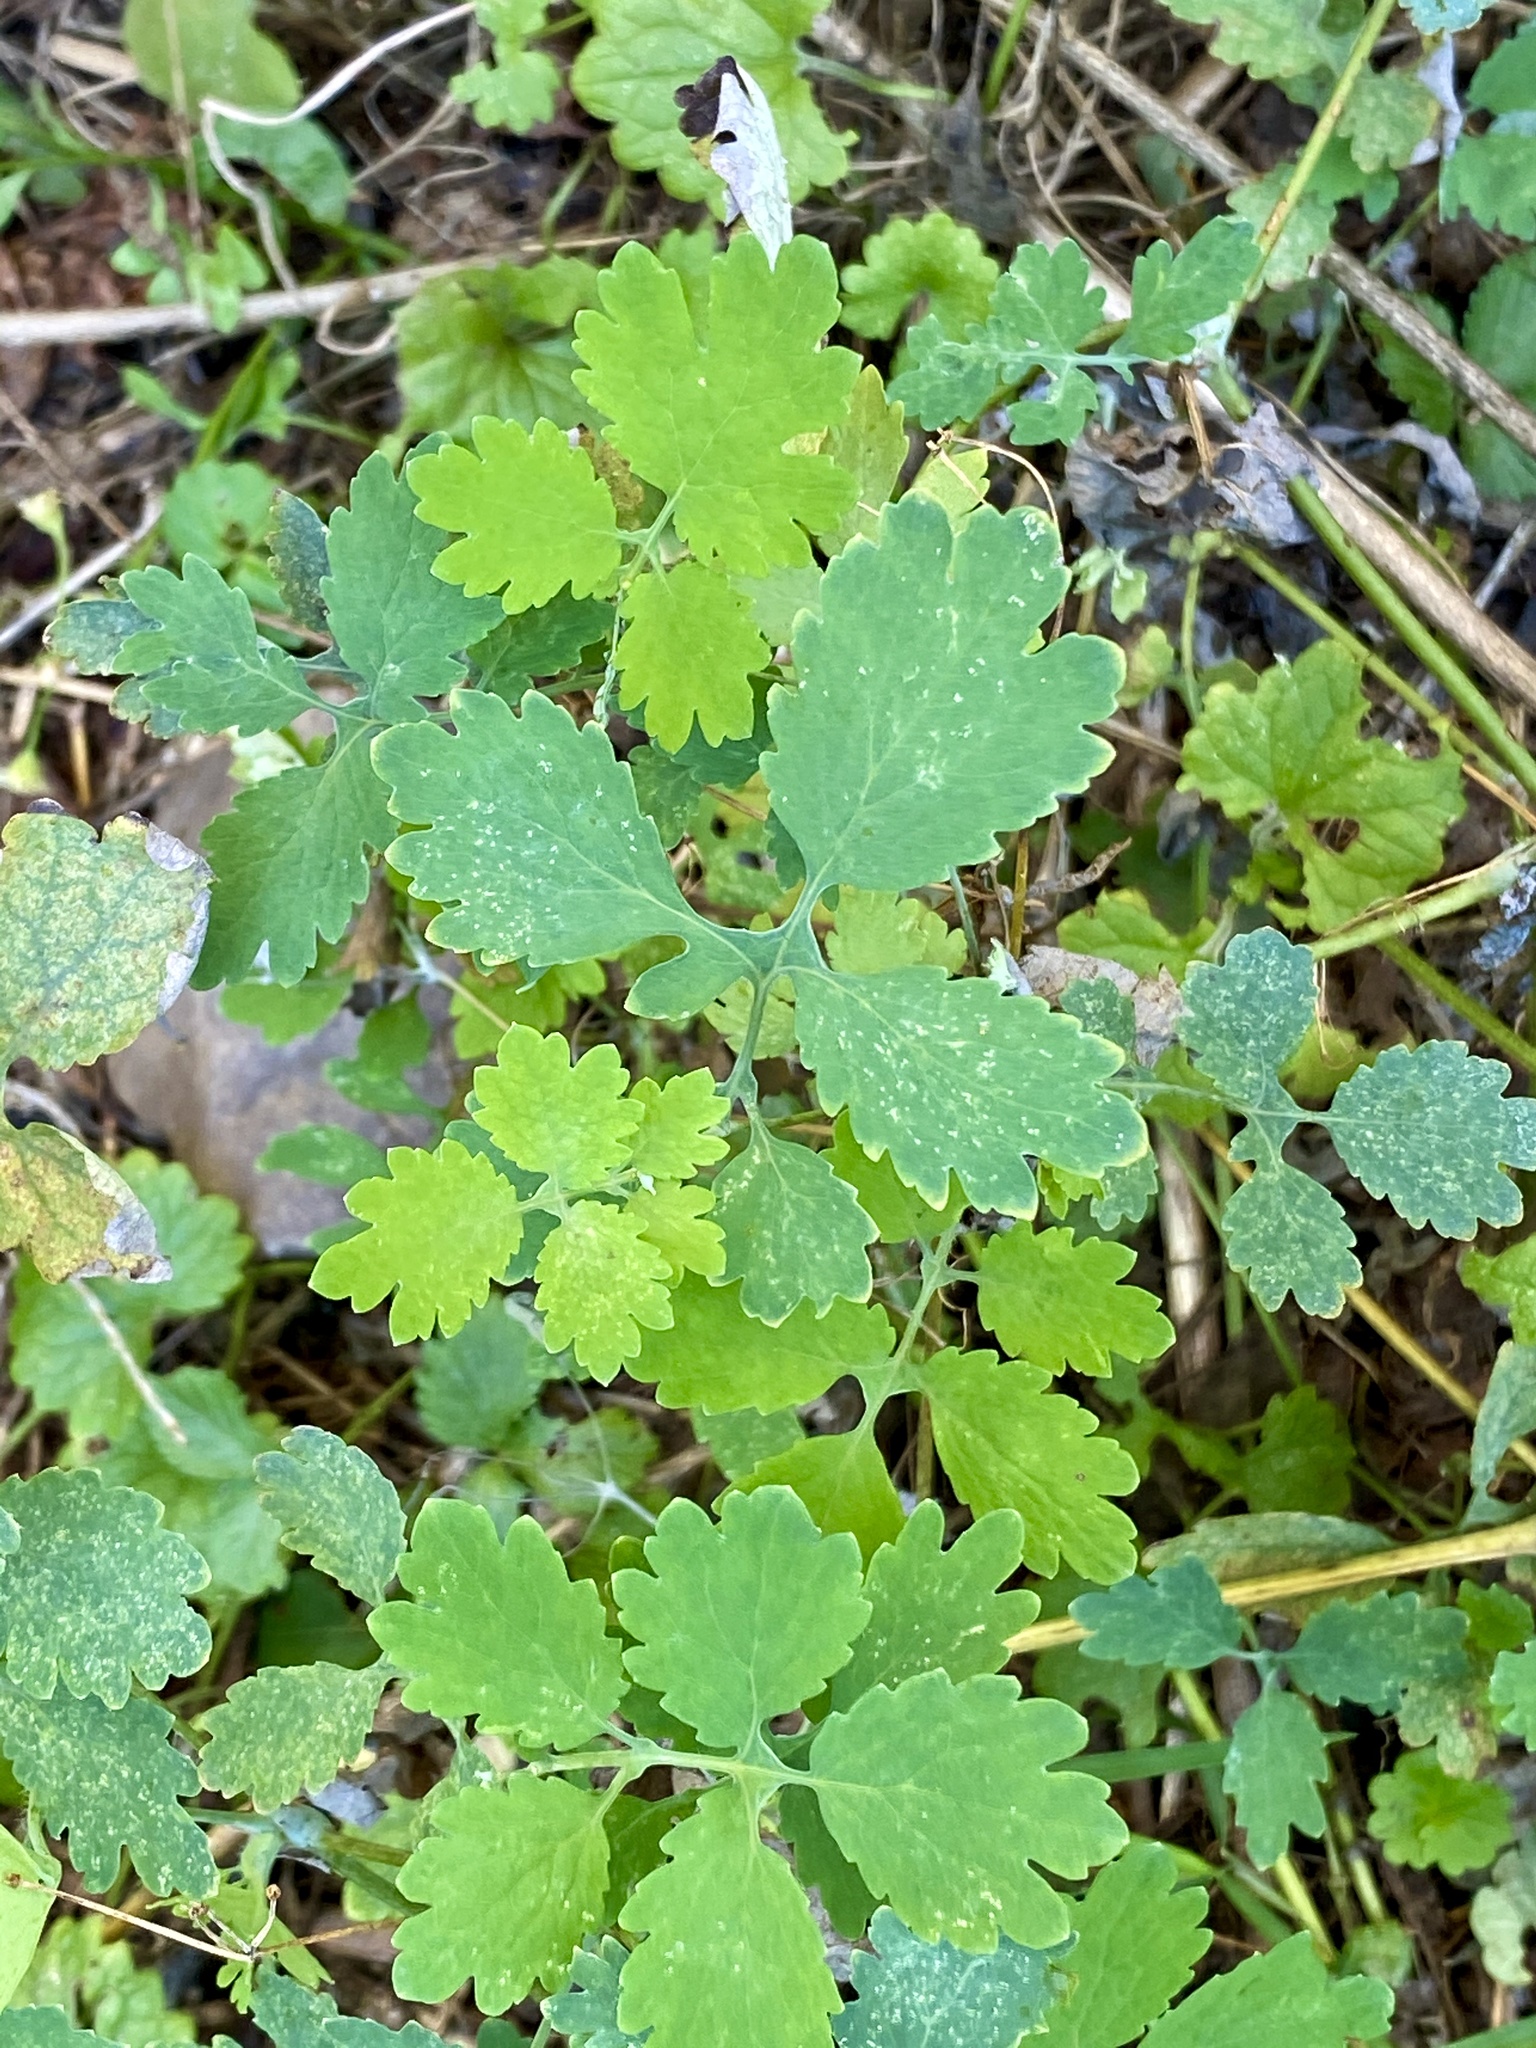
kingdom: Plantae
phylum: Tracheophyta
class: Magnoliopsida
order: Ranunculales
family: Papaveraceae
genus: Chelidonium
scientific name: Chelidonium majus
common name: Greater celandine
